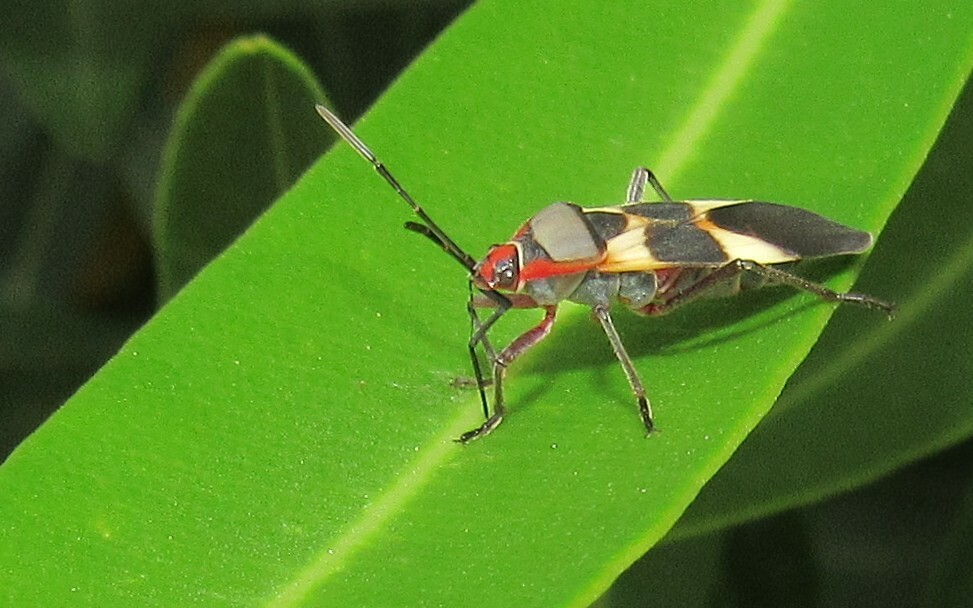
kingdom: Animalia
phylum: Arthropoda
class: Insecta
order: Hemiptera
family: Lygaeidae
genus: Oncopeltus
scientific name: Oncopeltus unifasciatellus
